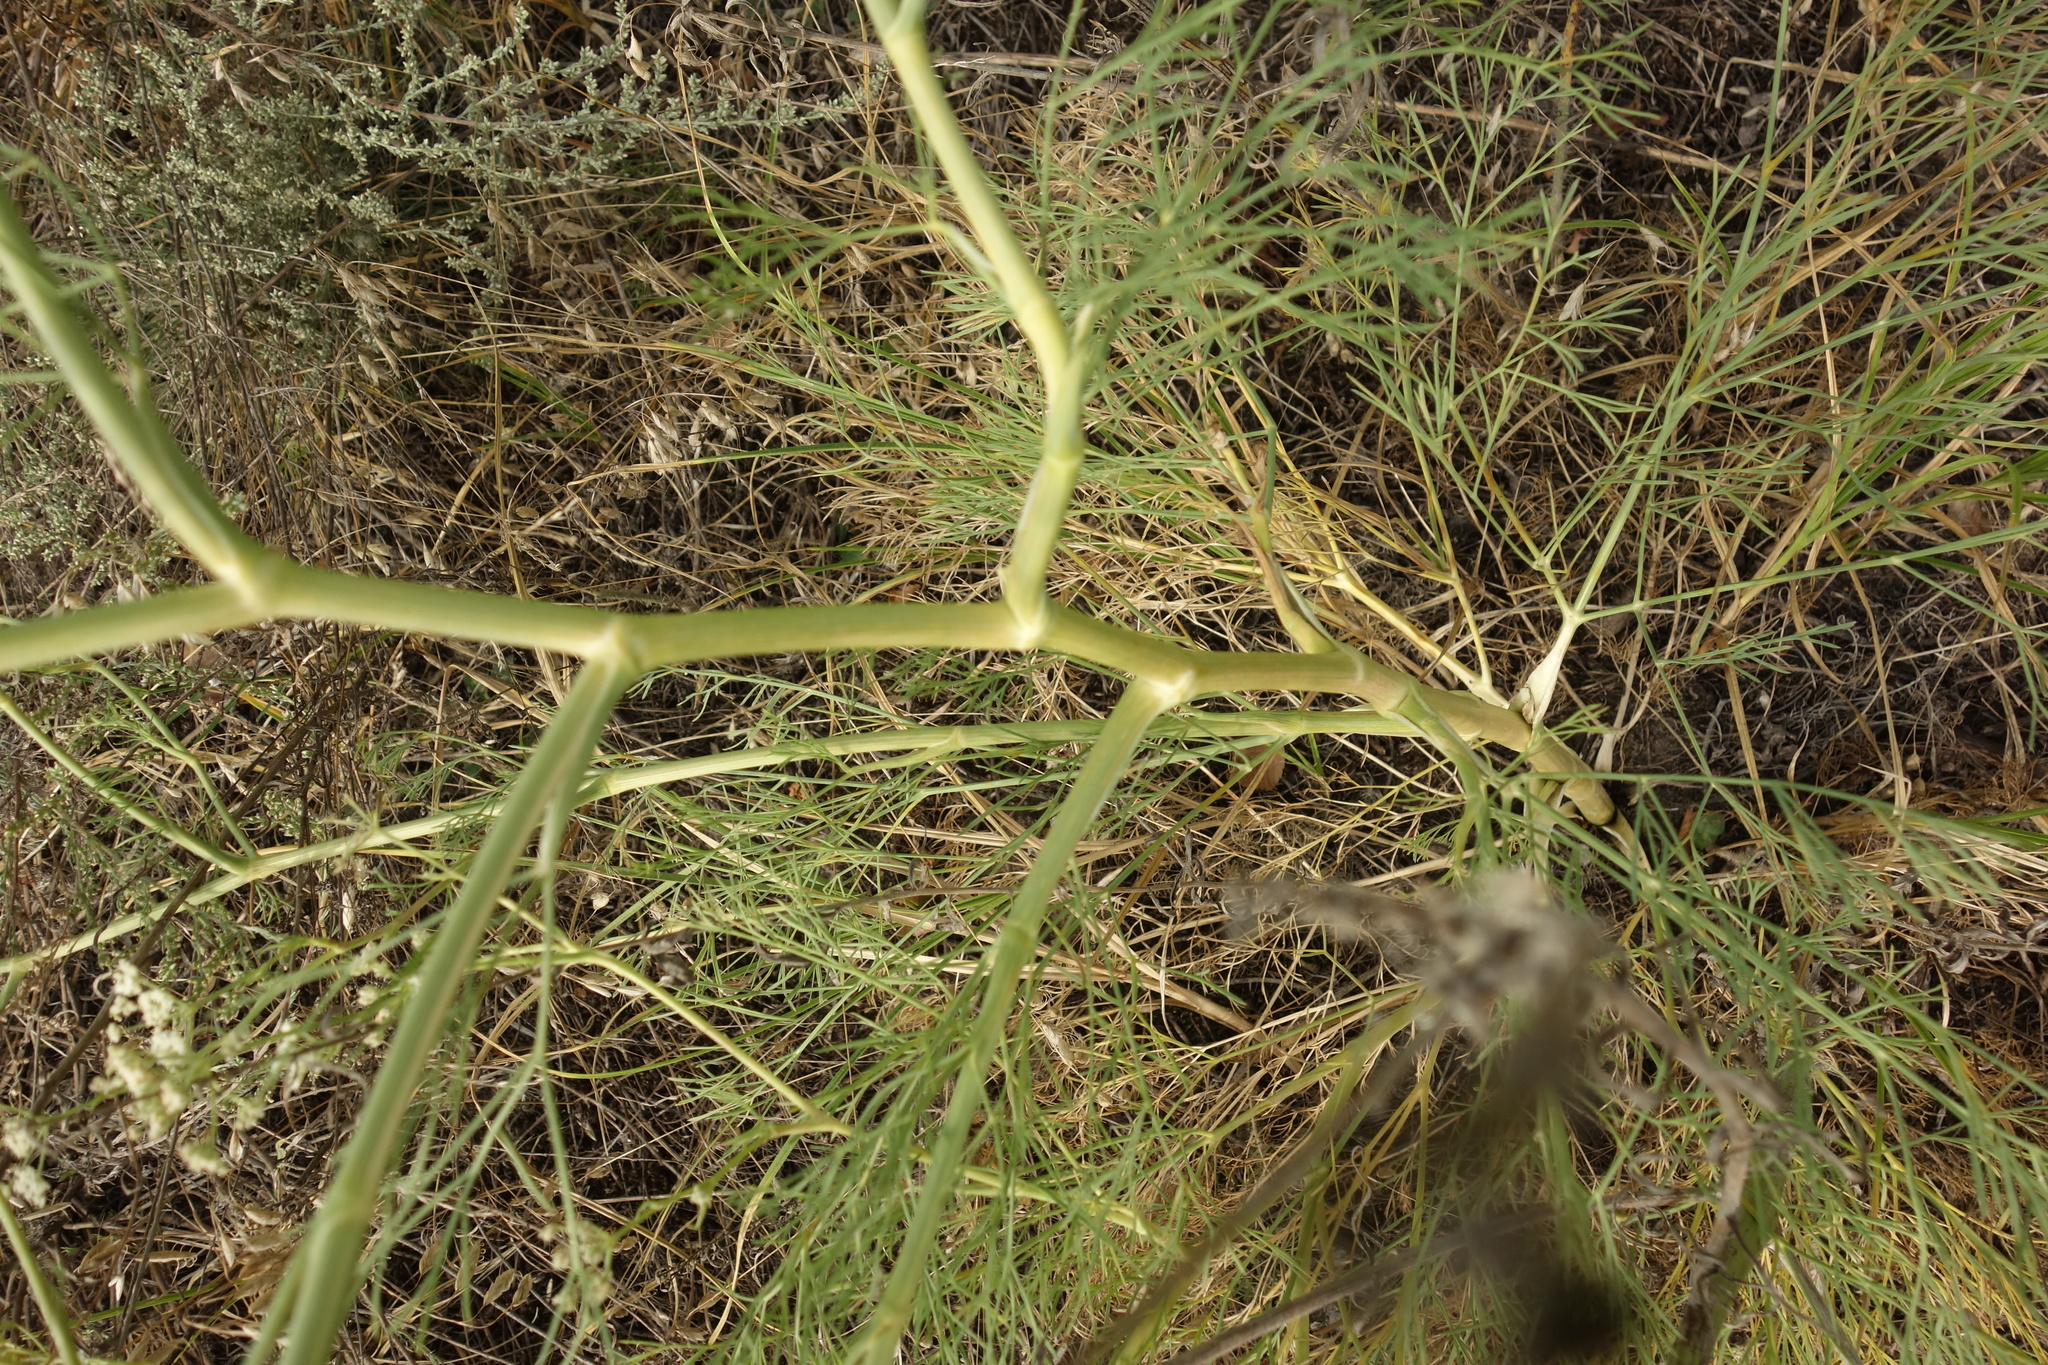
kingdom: Plantae
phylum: Tracheophyta
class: Magnoliopsida
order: Apiales
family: Apiaceae
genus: Seseli
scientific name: Seseli arenarium
